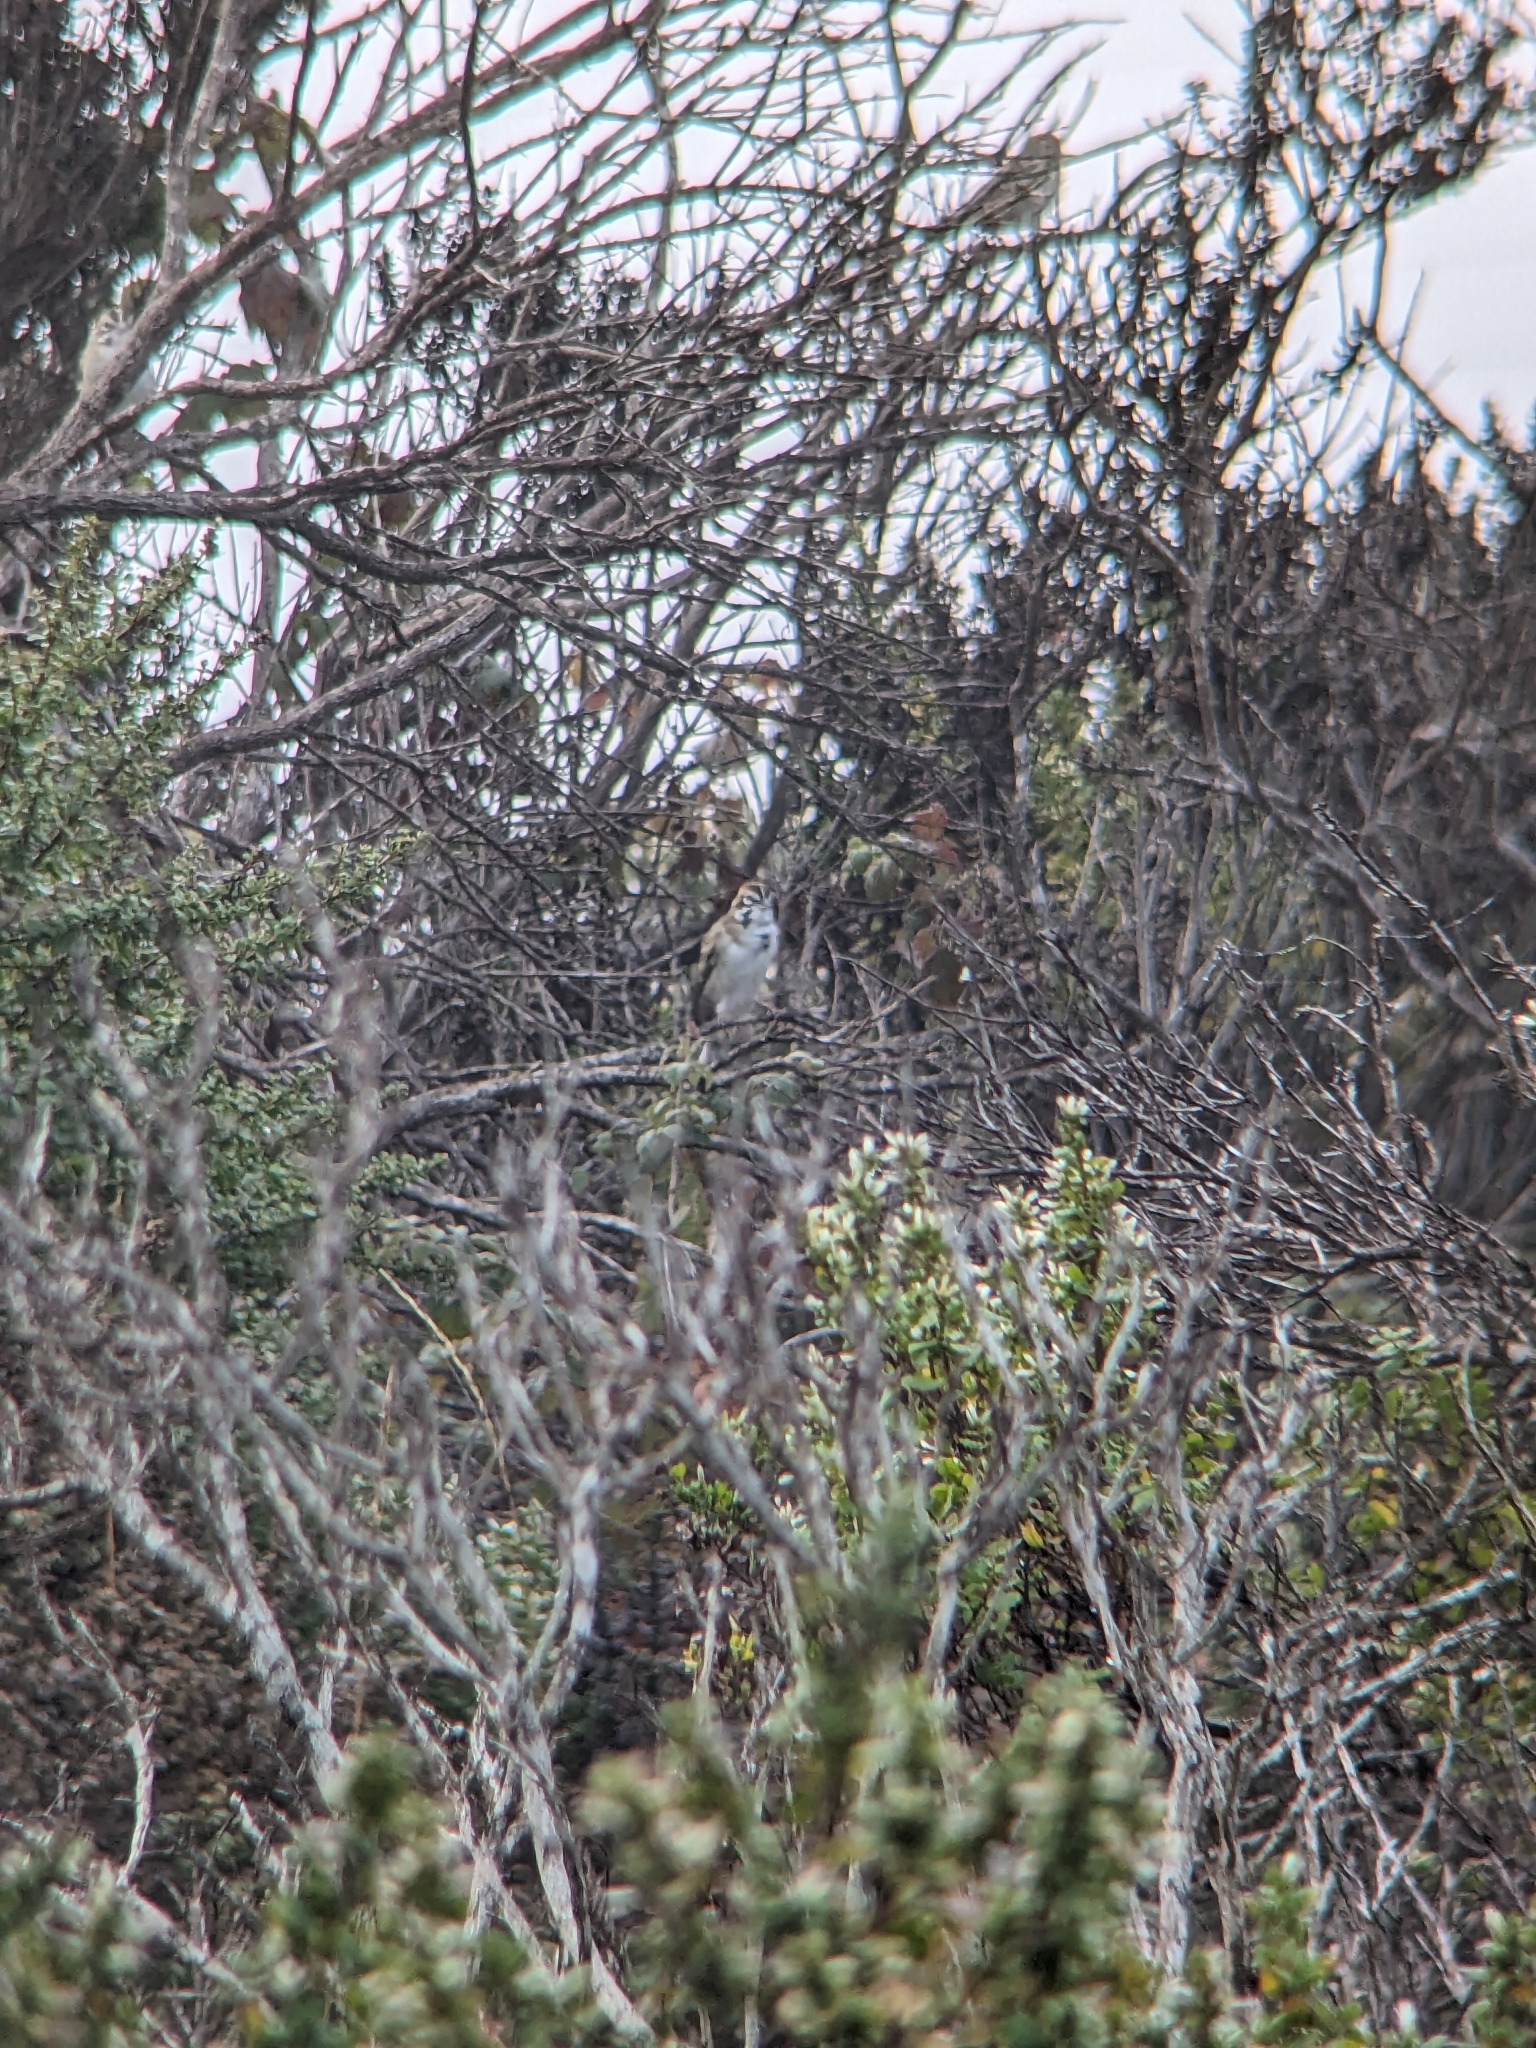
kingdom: Animalia
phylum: Chordata
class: Aves
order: Passeriformes
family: Passerellidae
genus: Chondestes
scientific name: Chondestes grammacus
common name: Lark sparrow
